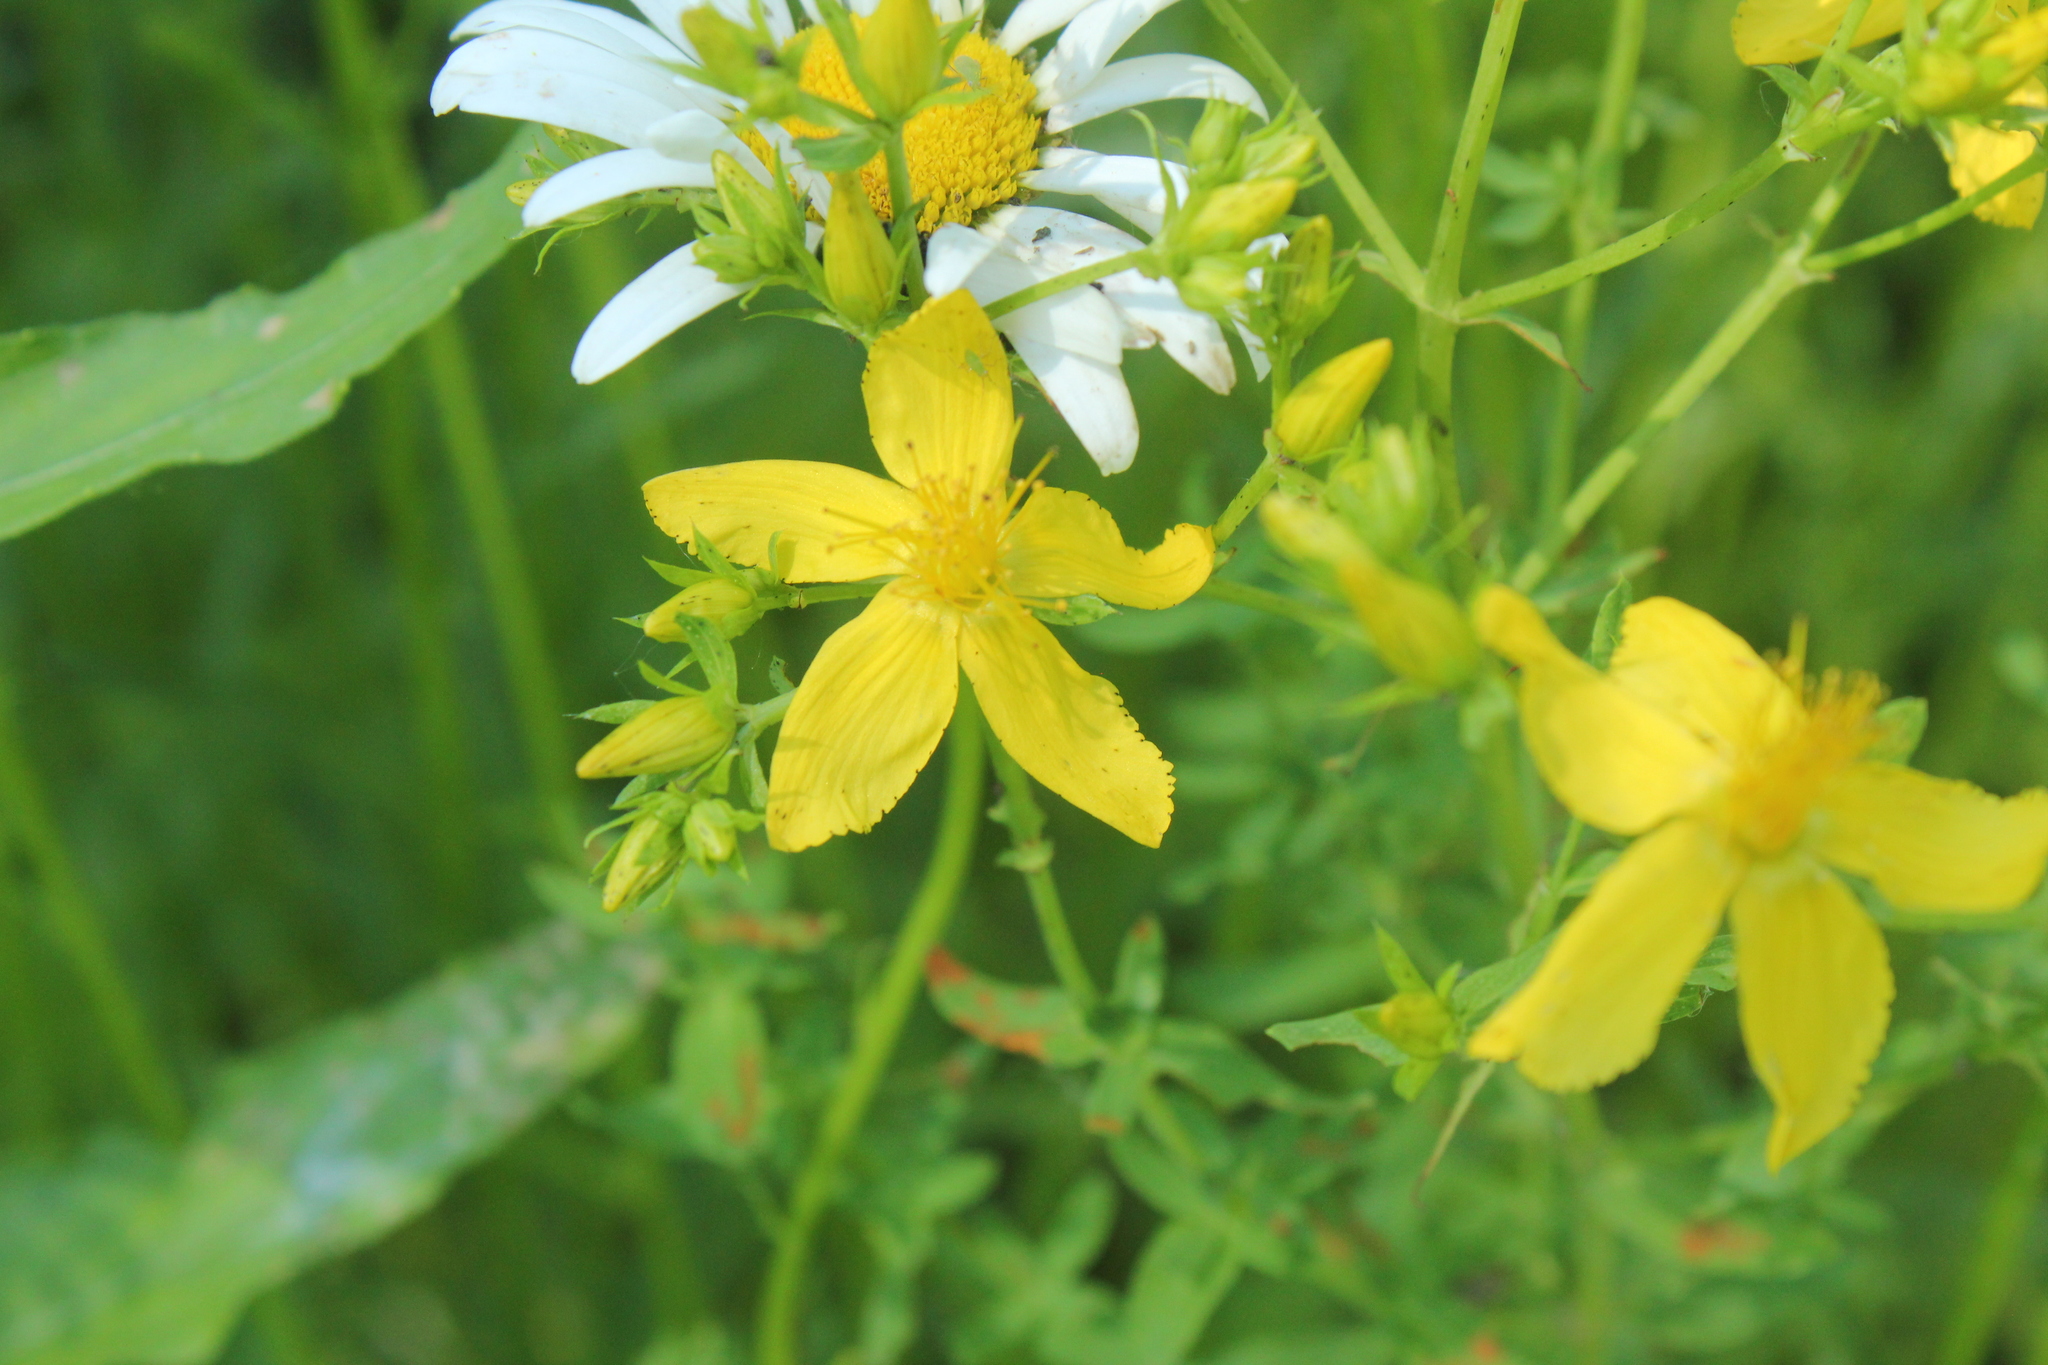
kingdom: Plantae
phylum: Tracheophyta
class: Magnoliopsida
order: Malpighiales
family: Hypericaceae
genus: Hypericum
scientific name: Hypericum perforatum
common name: Common st. johnswort
